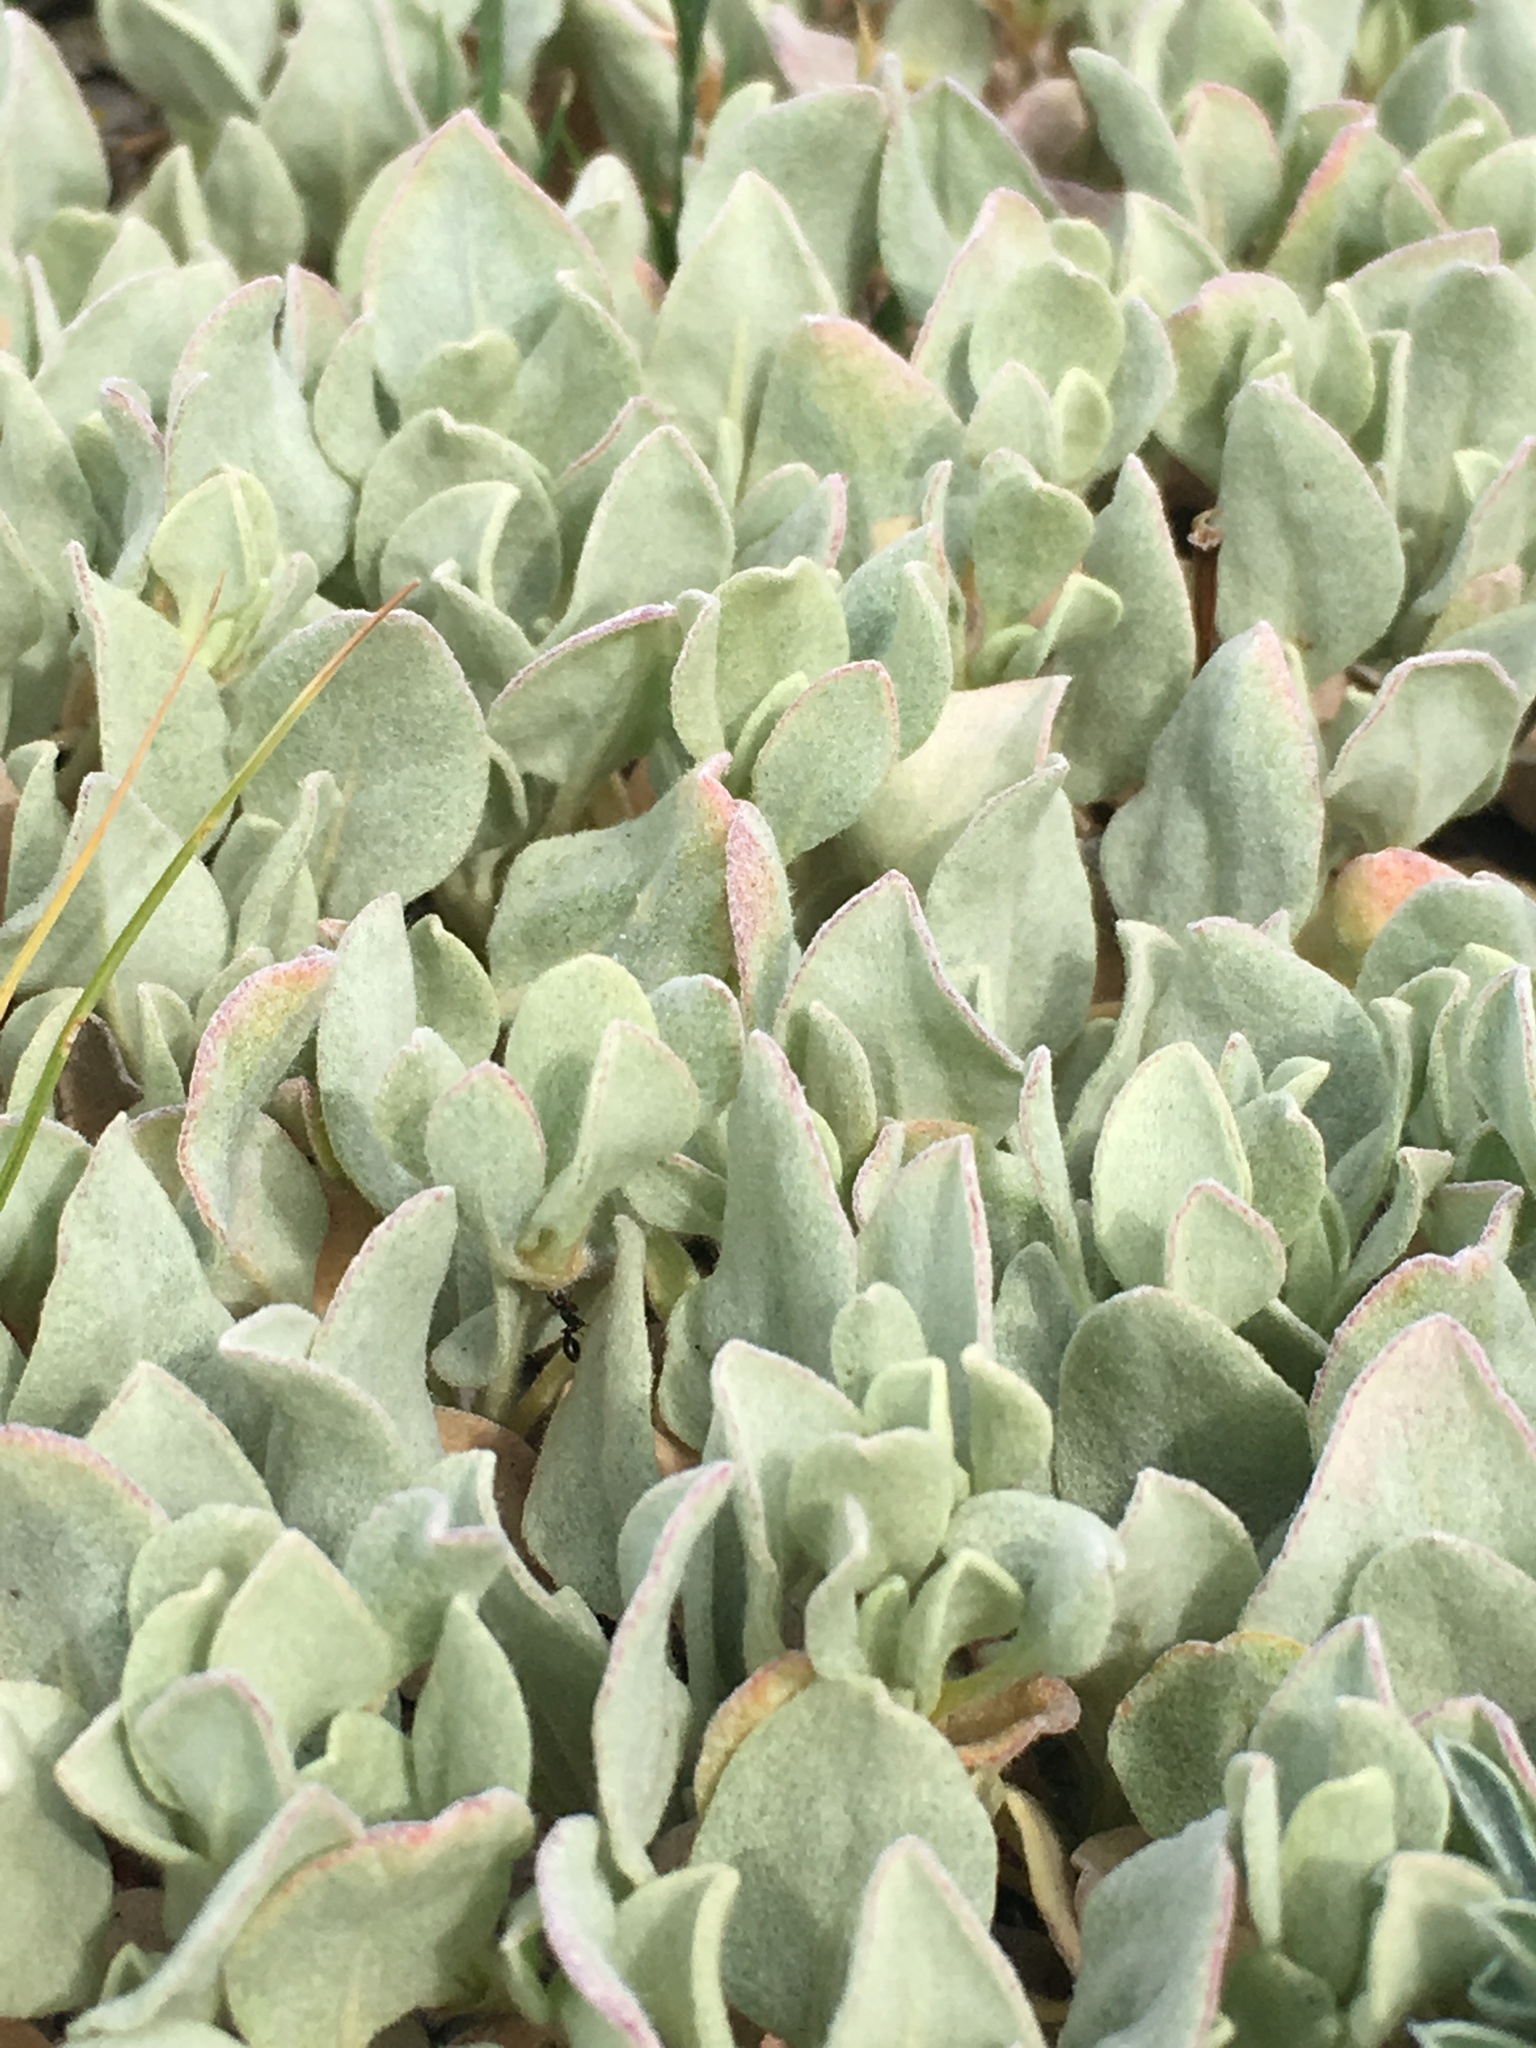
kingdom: Plantae
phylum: Tracheophyta
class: Magnoliopsida
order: Caryophyllales
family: Polygonaceae
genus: Eriogonum
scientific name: Eriogonum diclinum
